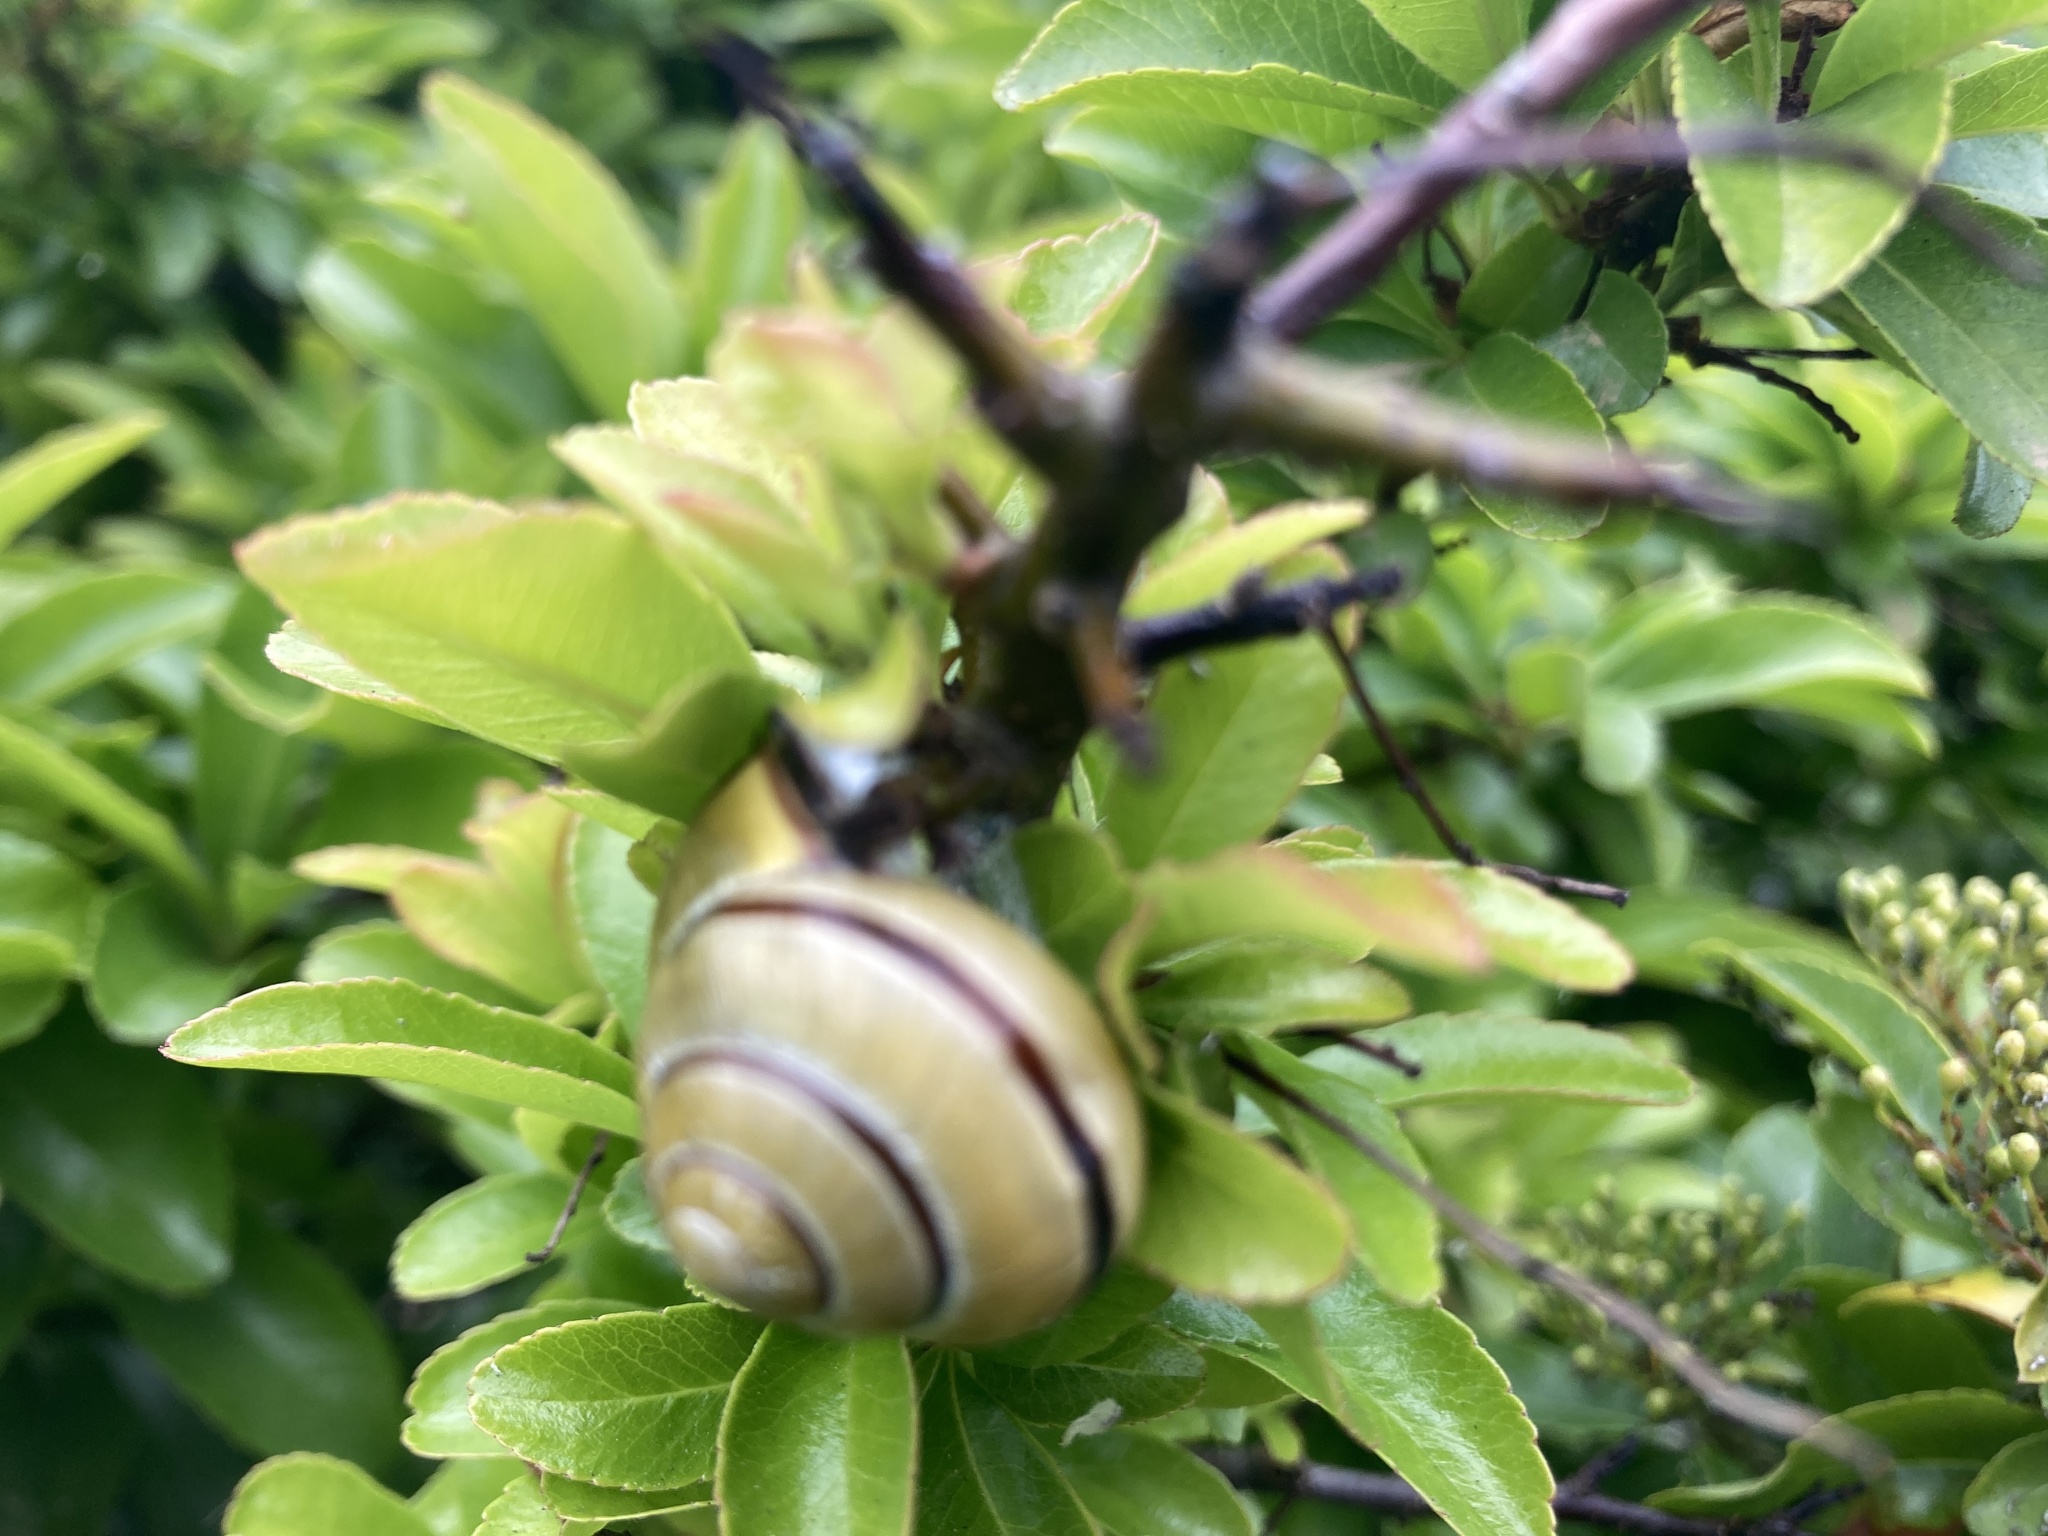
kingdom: Animalia
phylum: Mollusca
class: Gastropoda
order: Stylommatophora
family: Helicidae
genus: Cepaea
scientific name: Cepaea nemoralis
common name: Grovesnail
